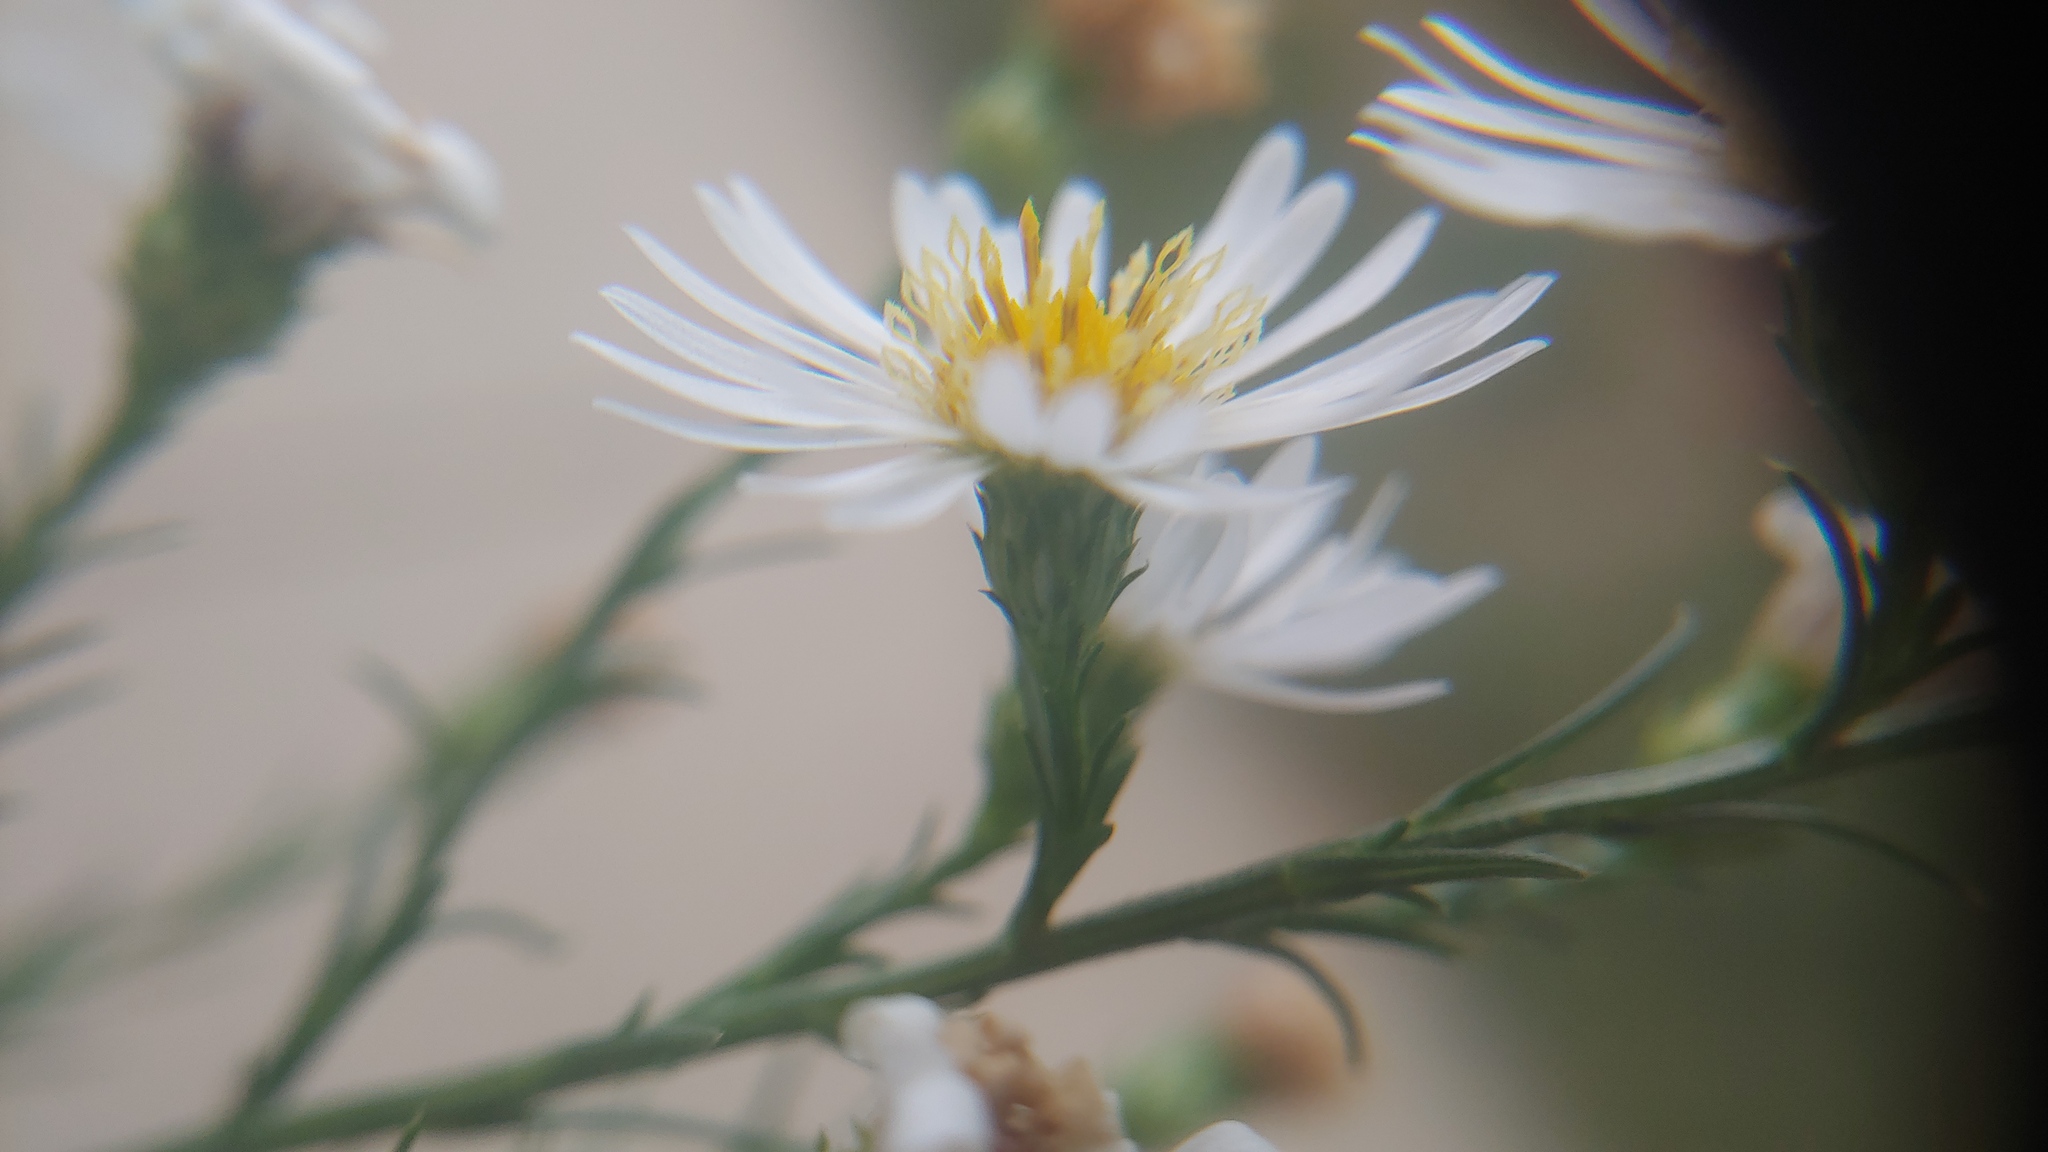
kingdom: Plantae
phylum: Tracheophyta
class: Magnoliopsida
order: Asterales
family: Asteraceae
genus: Symphyotrichum
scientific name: Symphyotrichum pilosum
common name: Awl aster
